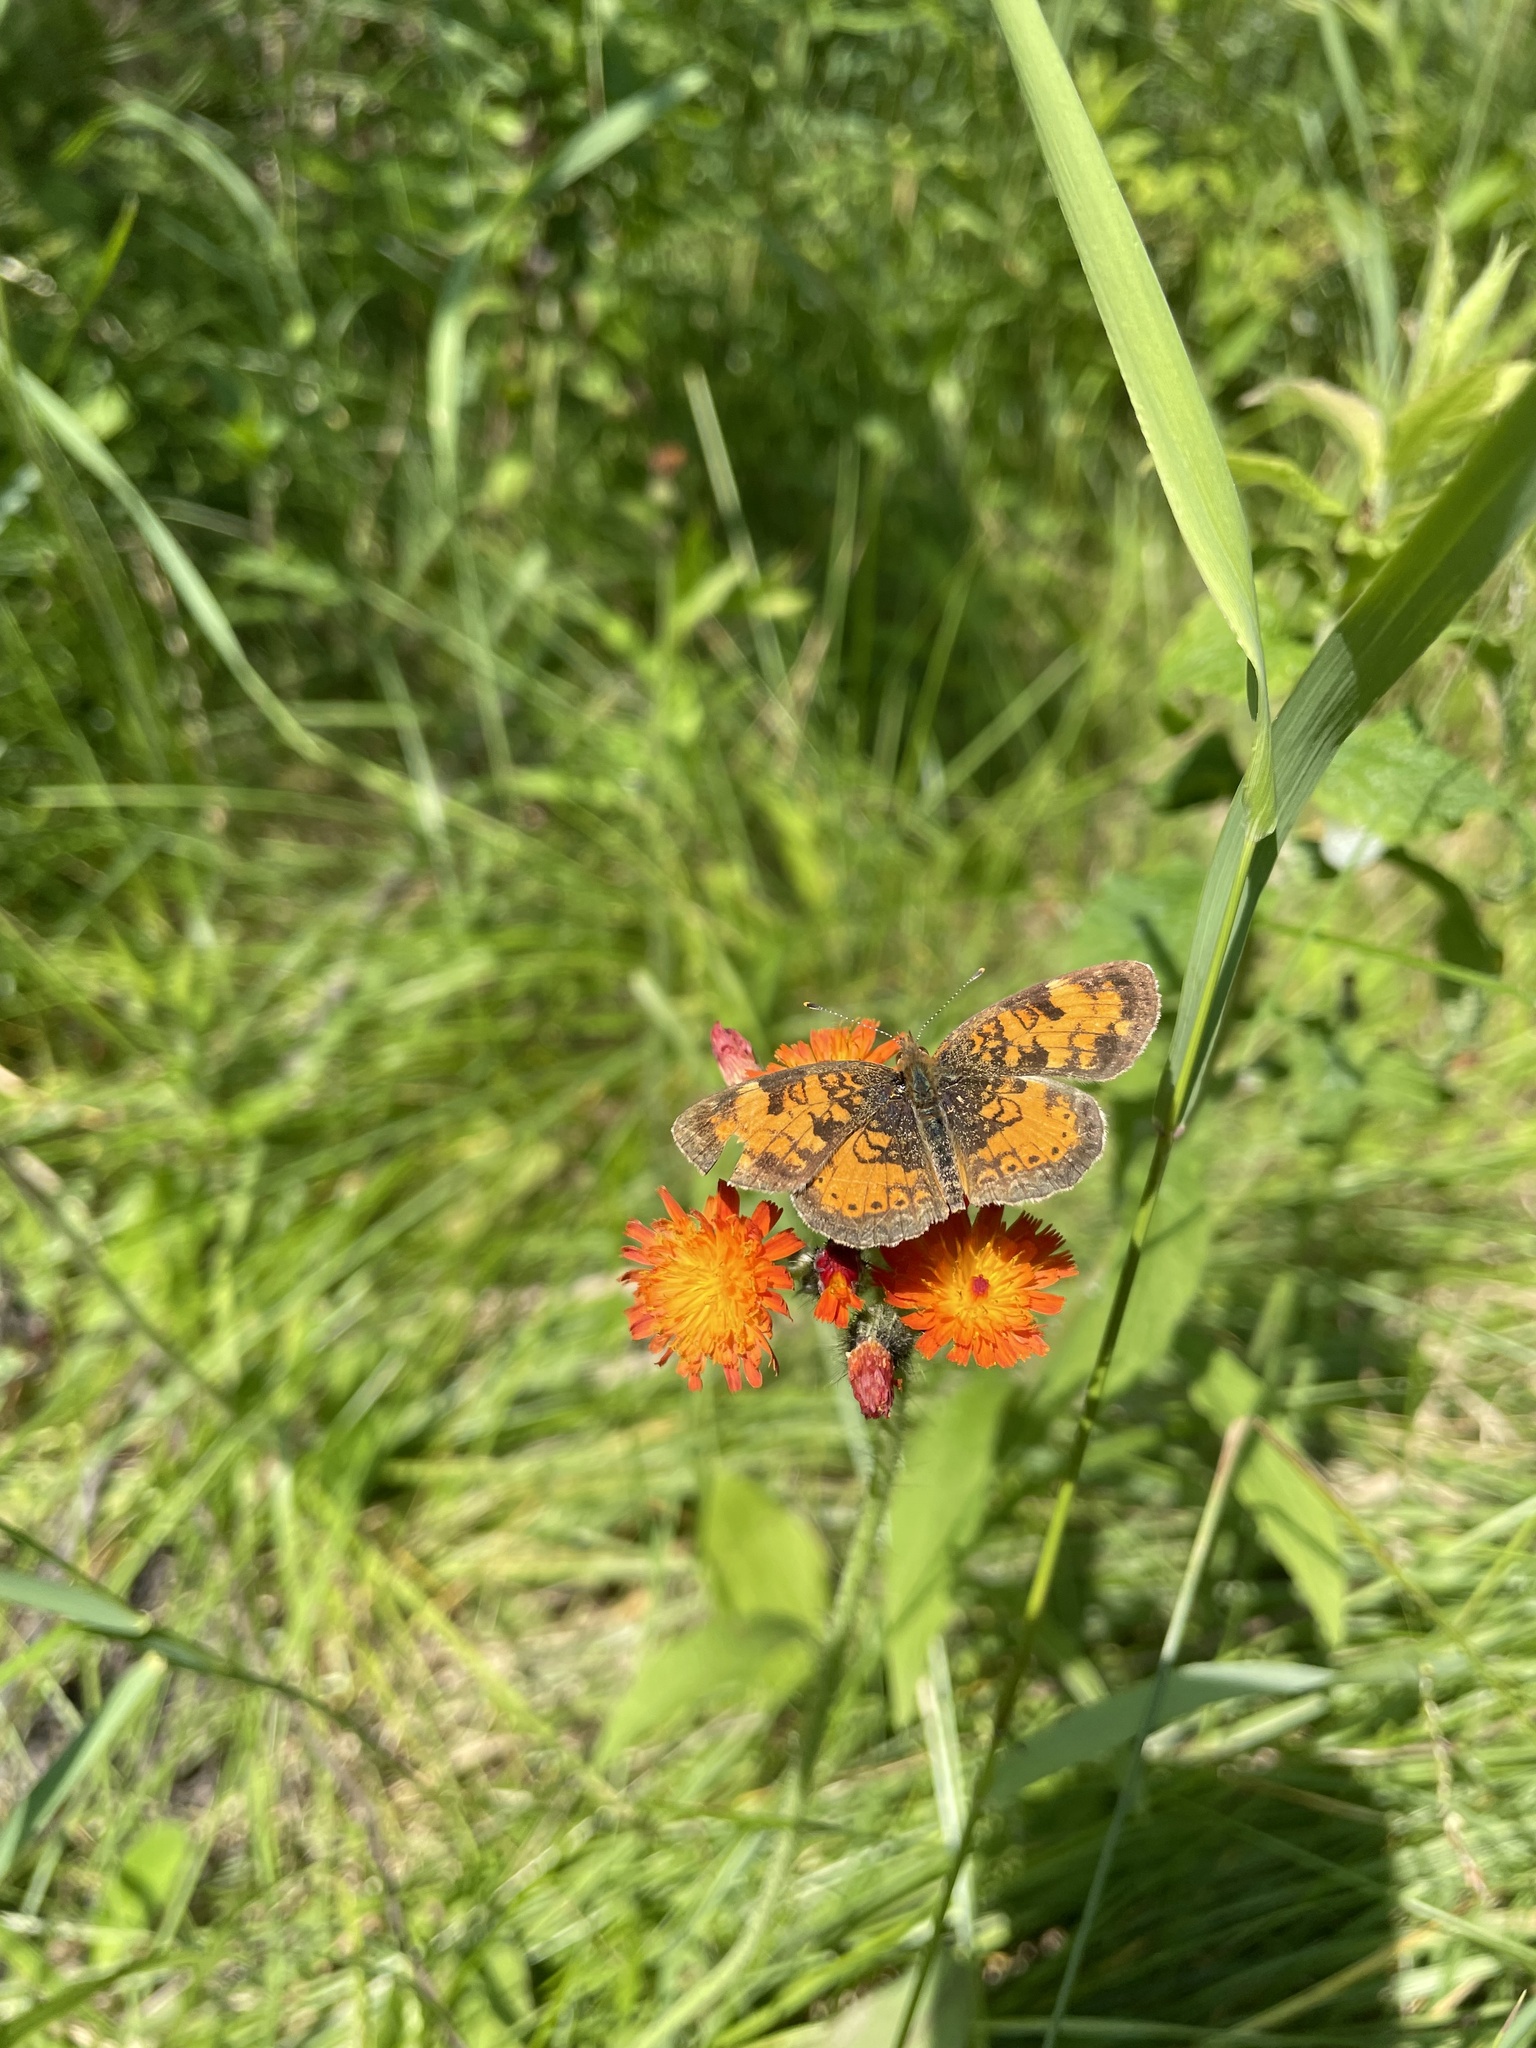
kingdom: Animalia
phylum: Arthropoda
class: Insecta
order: Lepidoptera
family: Nymphalidae
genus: Phyciodes
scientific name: Phyciodes tharos
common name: Pearl crescent
